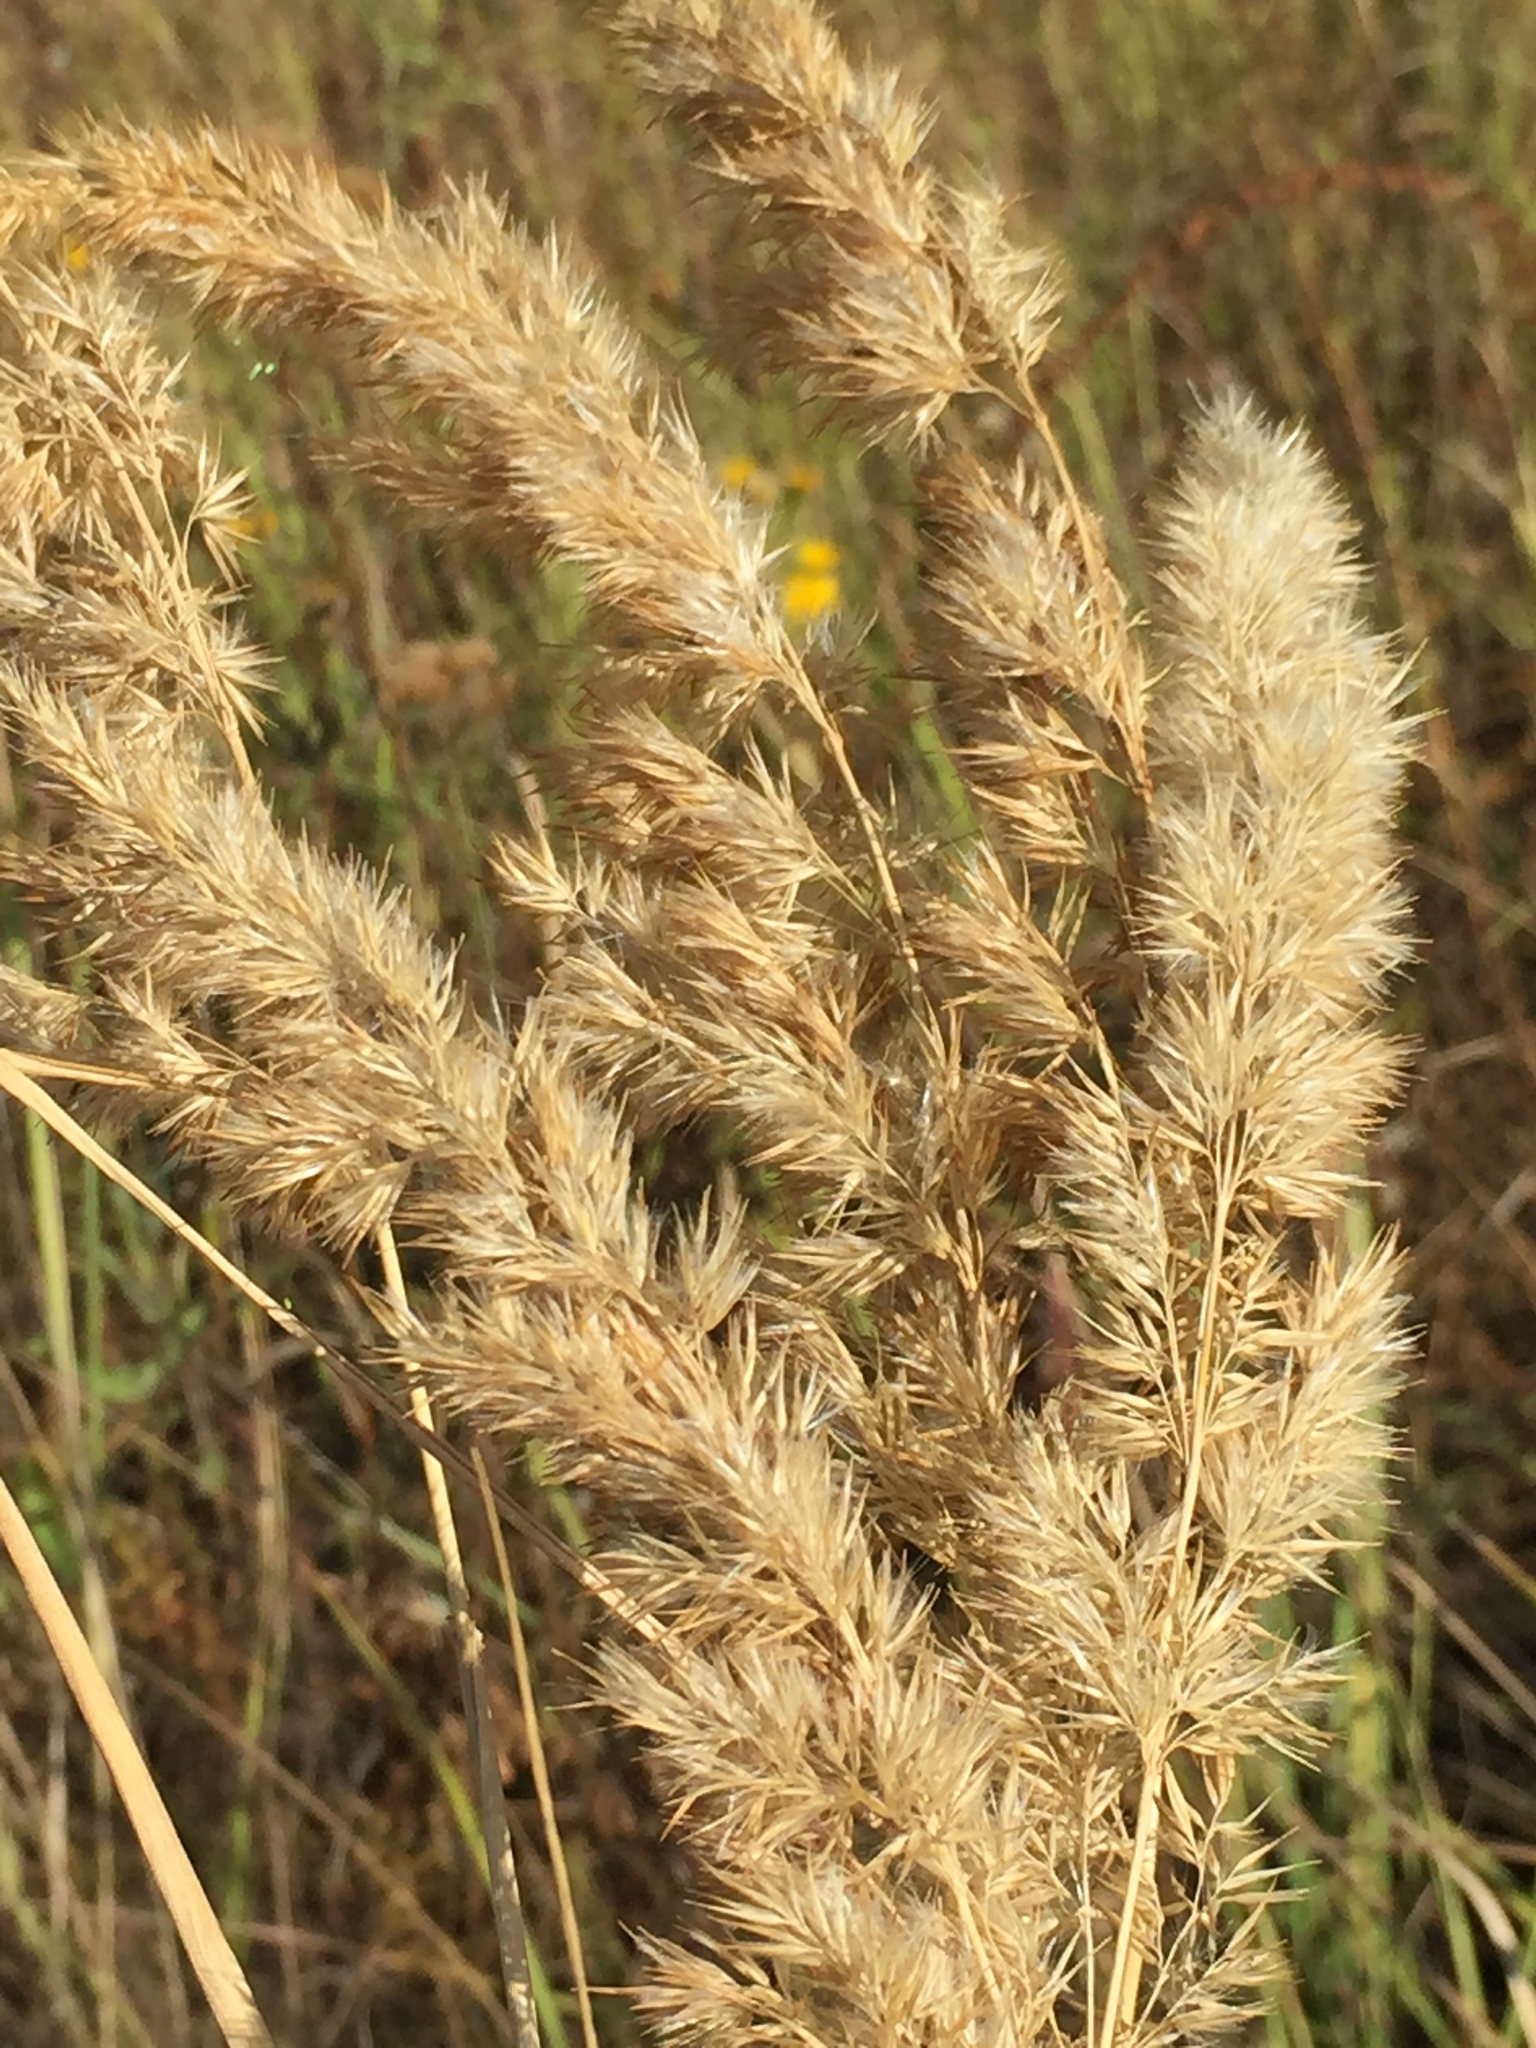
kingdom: Plantae
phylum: Tracheophyta
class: Liliopsida
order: Poales
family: Poaceae
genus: Calamagrostis
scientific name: Calamagrostis epigejos
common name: Wood small-reed
